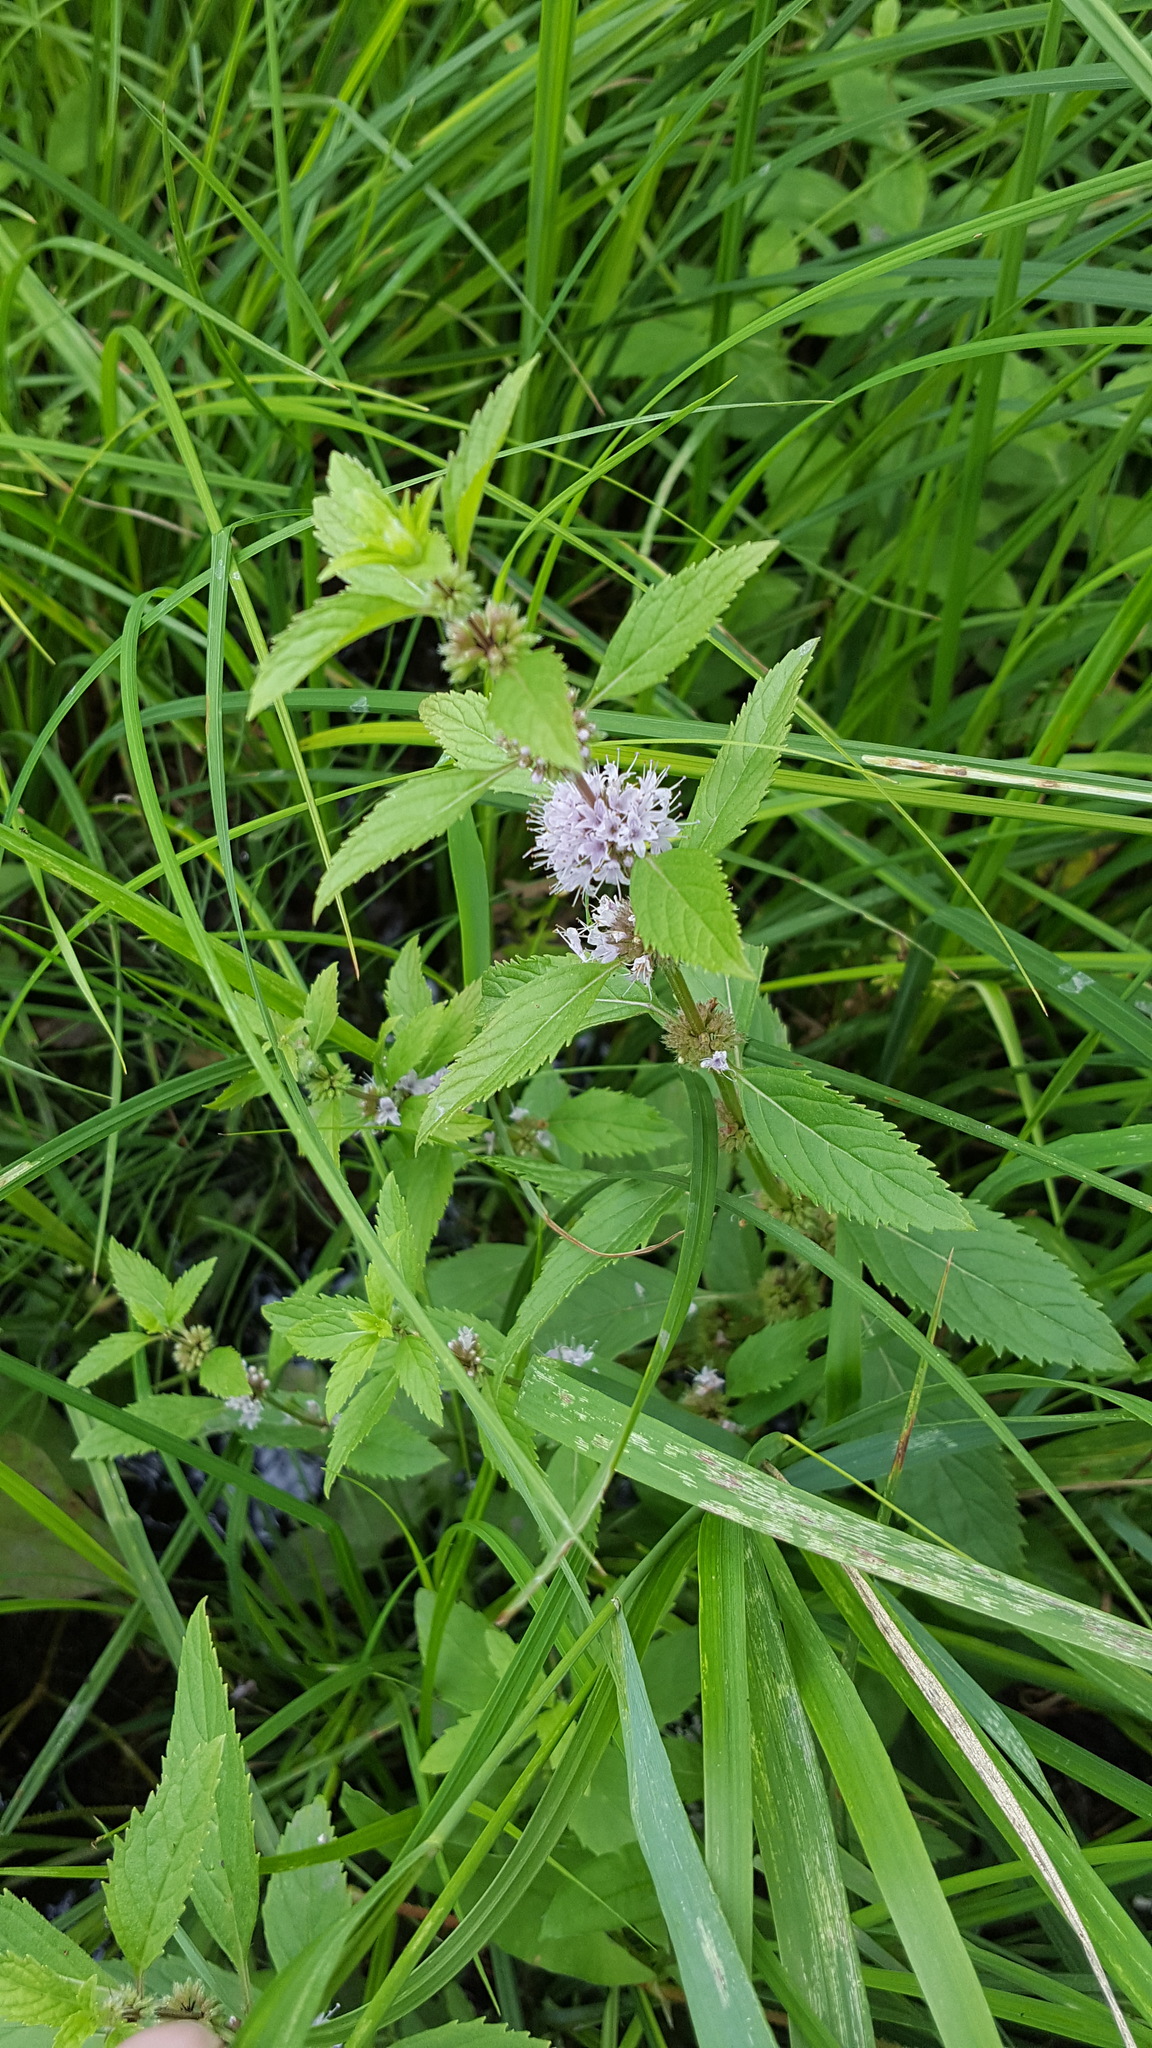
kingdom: Plantae
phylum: Tracheophyta
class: Magnoliopsida
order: Lamiales
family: Lamiaceae
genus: Mentha
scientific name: Mentha canadensis
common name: American corn mint
